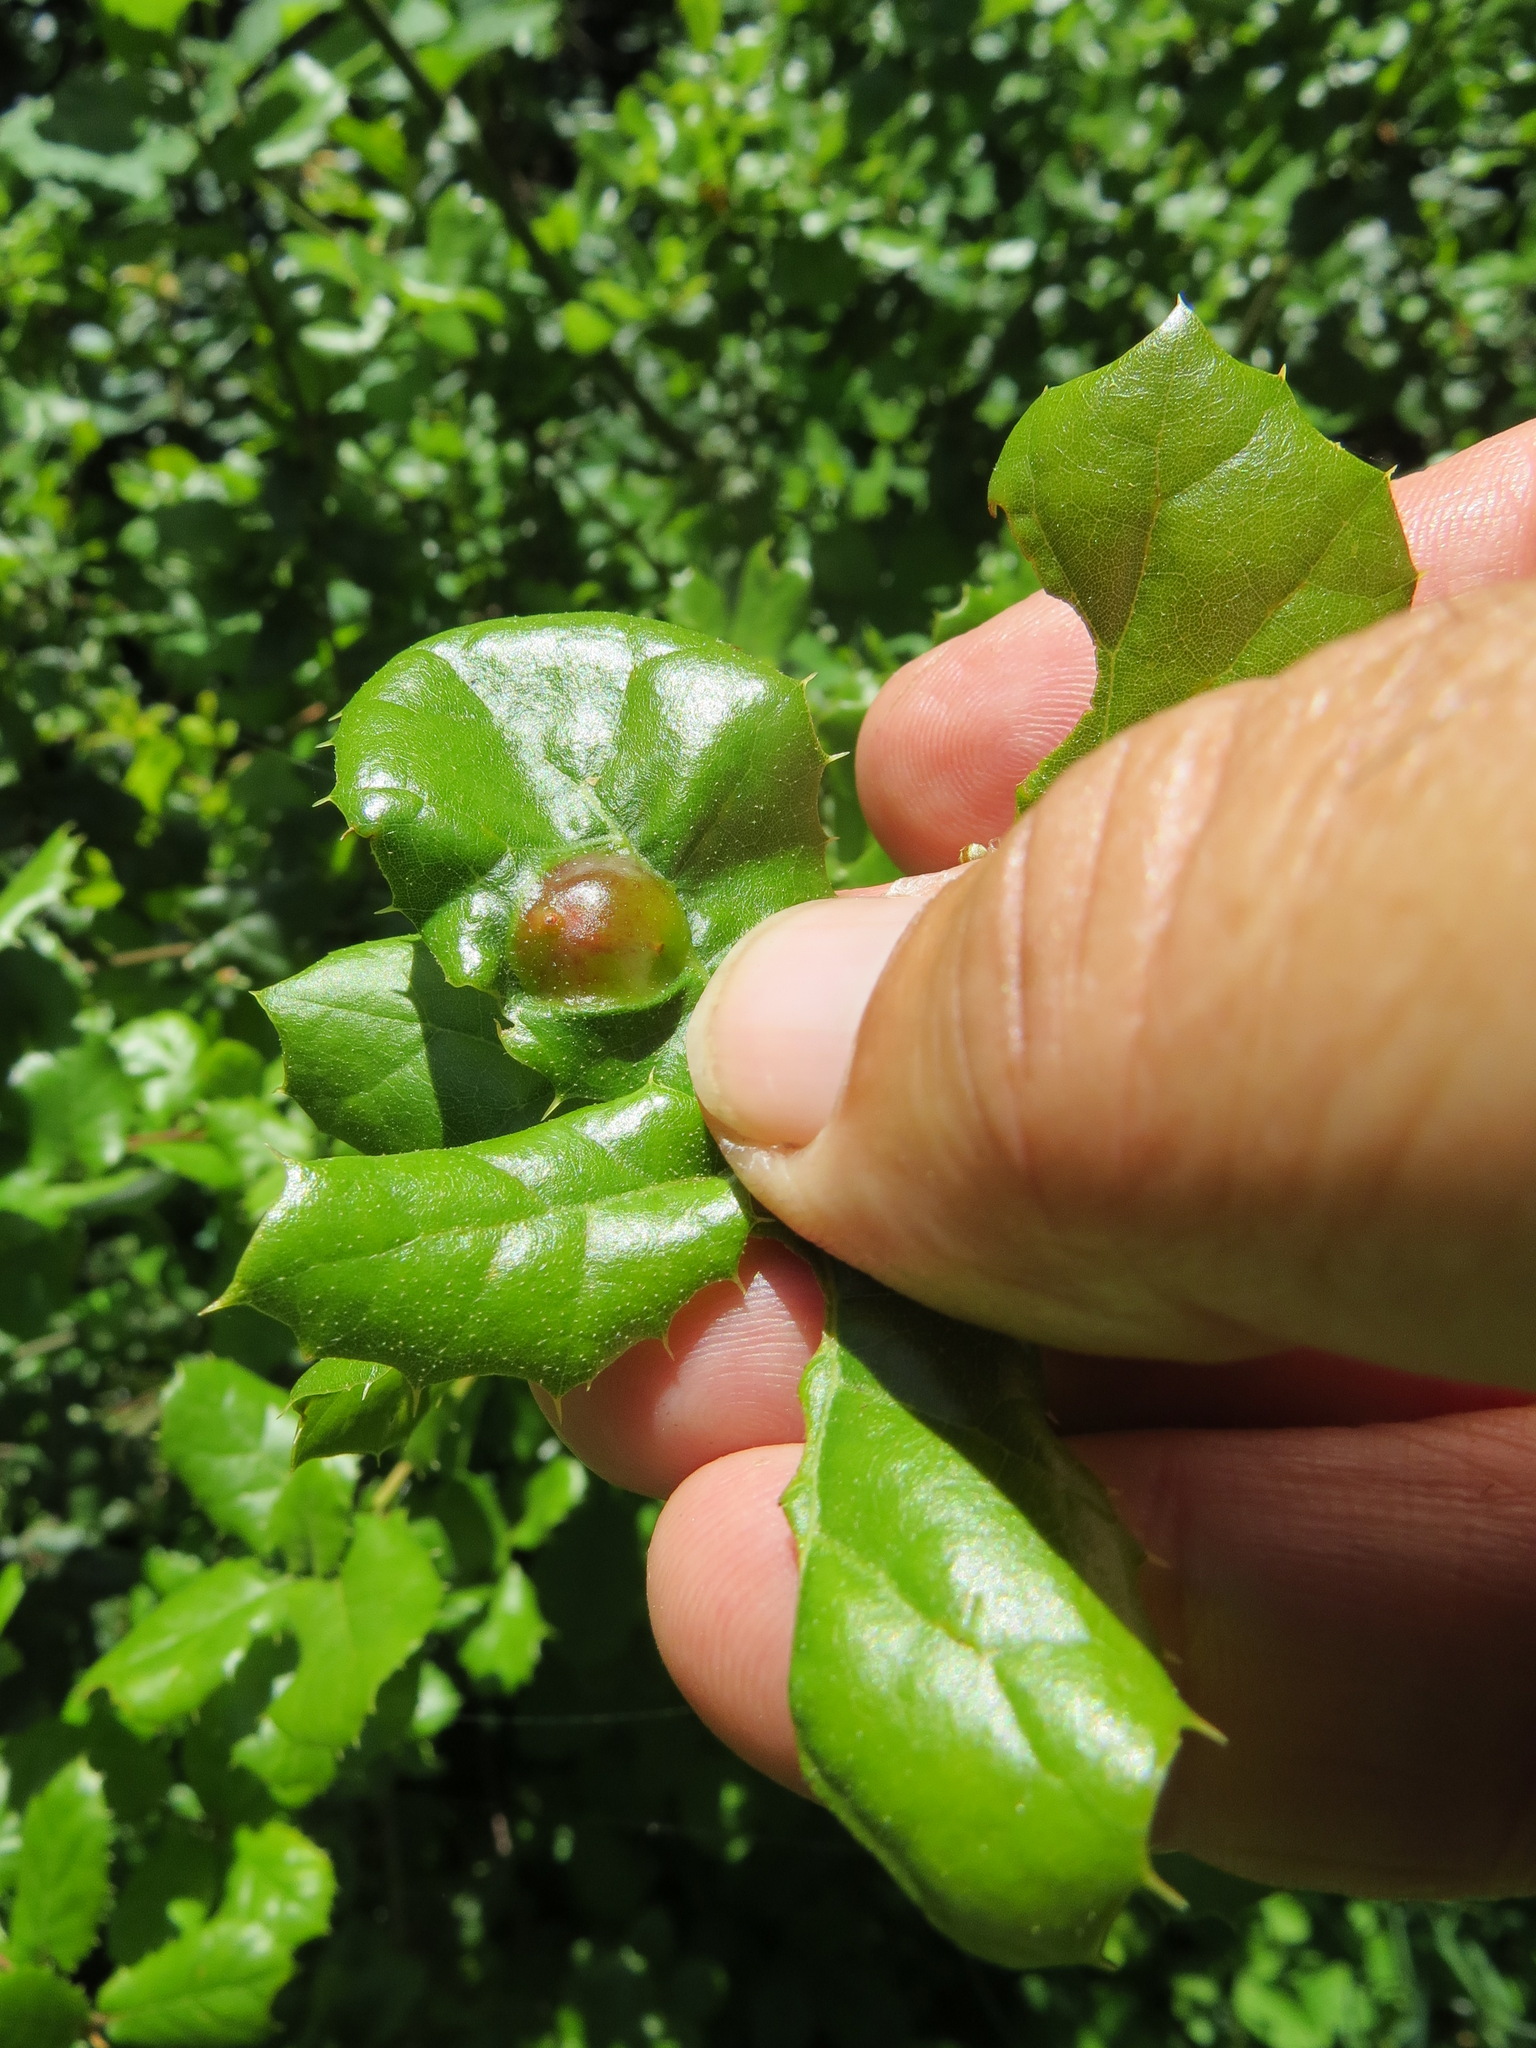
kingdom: Animalia
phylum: Arthropoda
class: Insecta
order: Hymenoptera
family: Cynipidae
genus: Callirhytis
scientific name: Callirhytis
